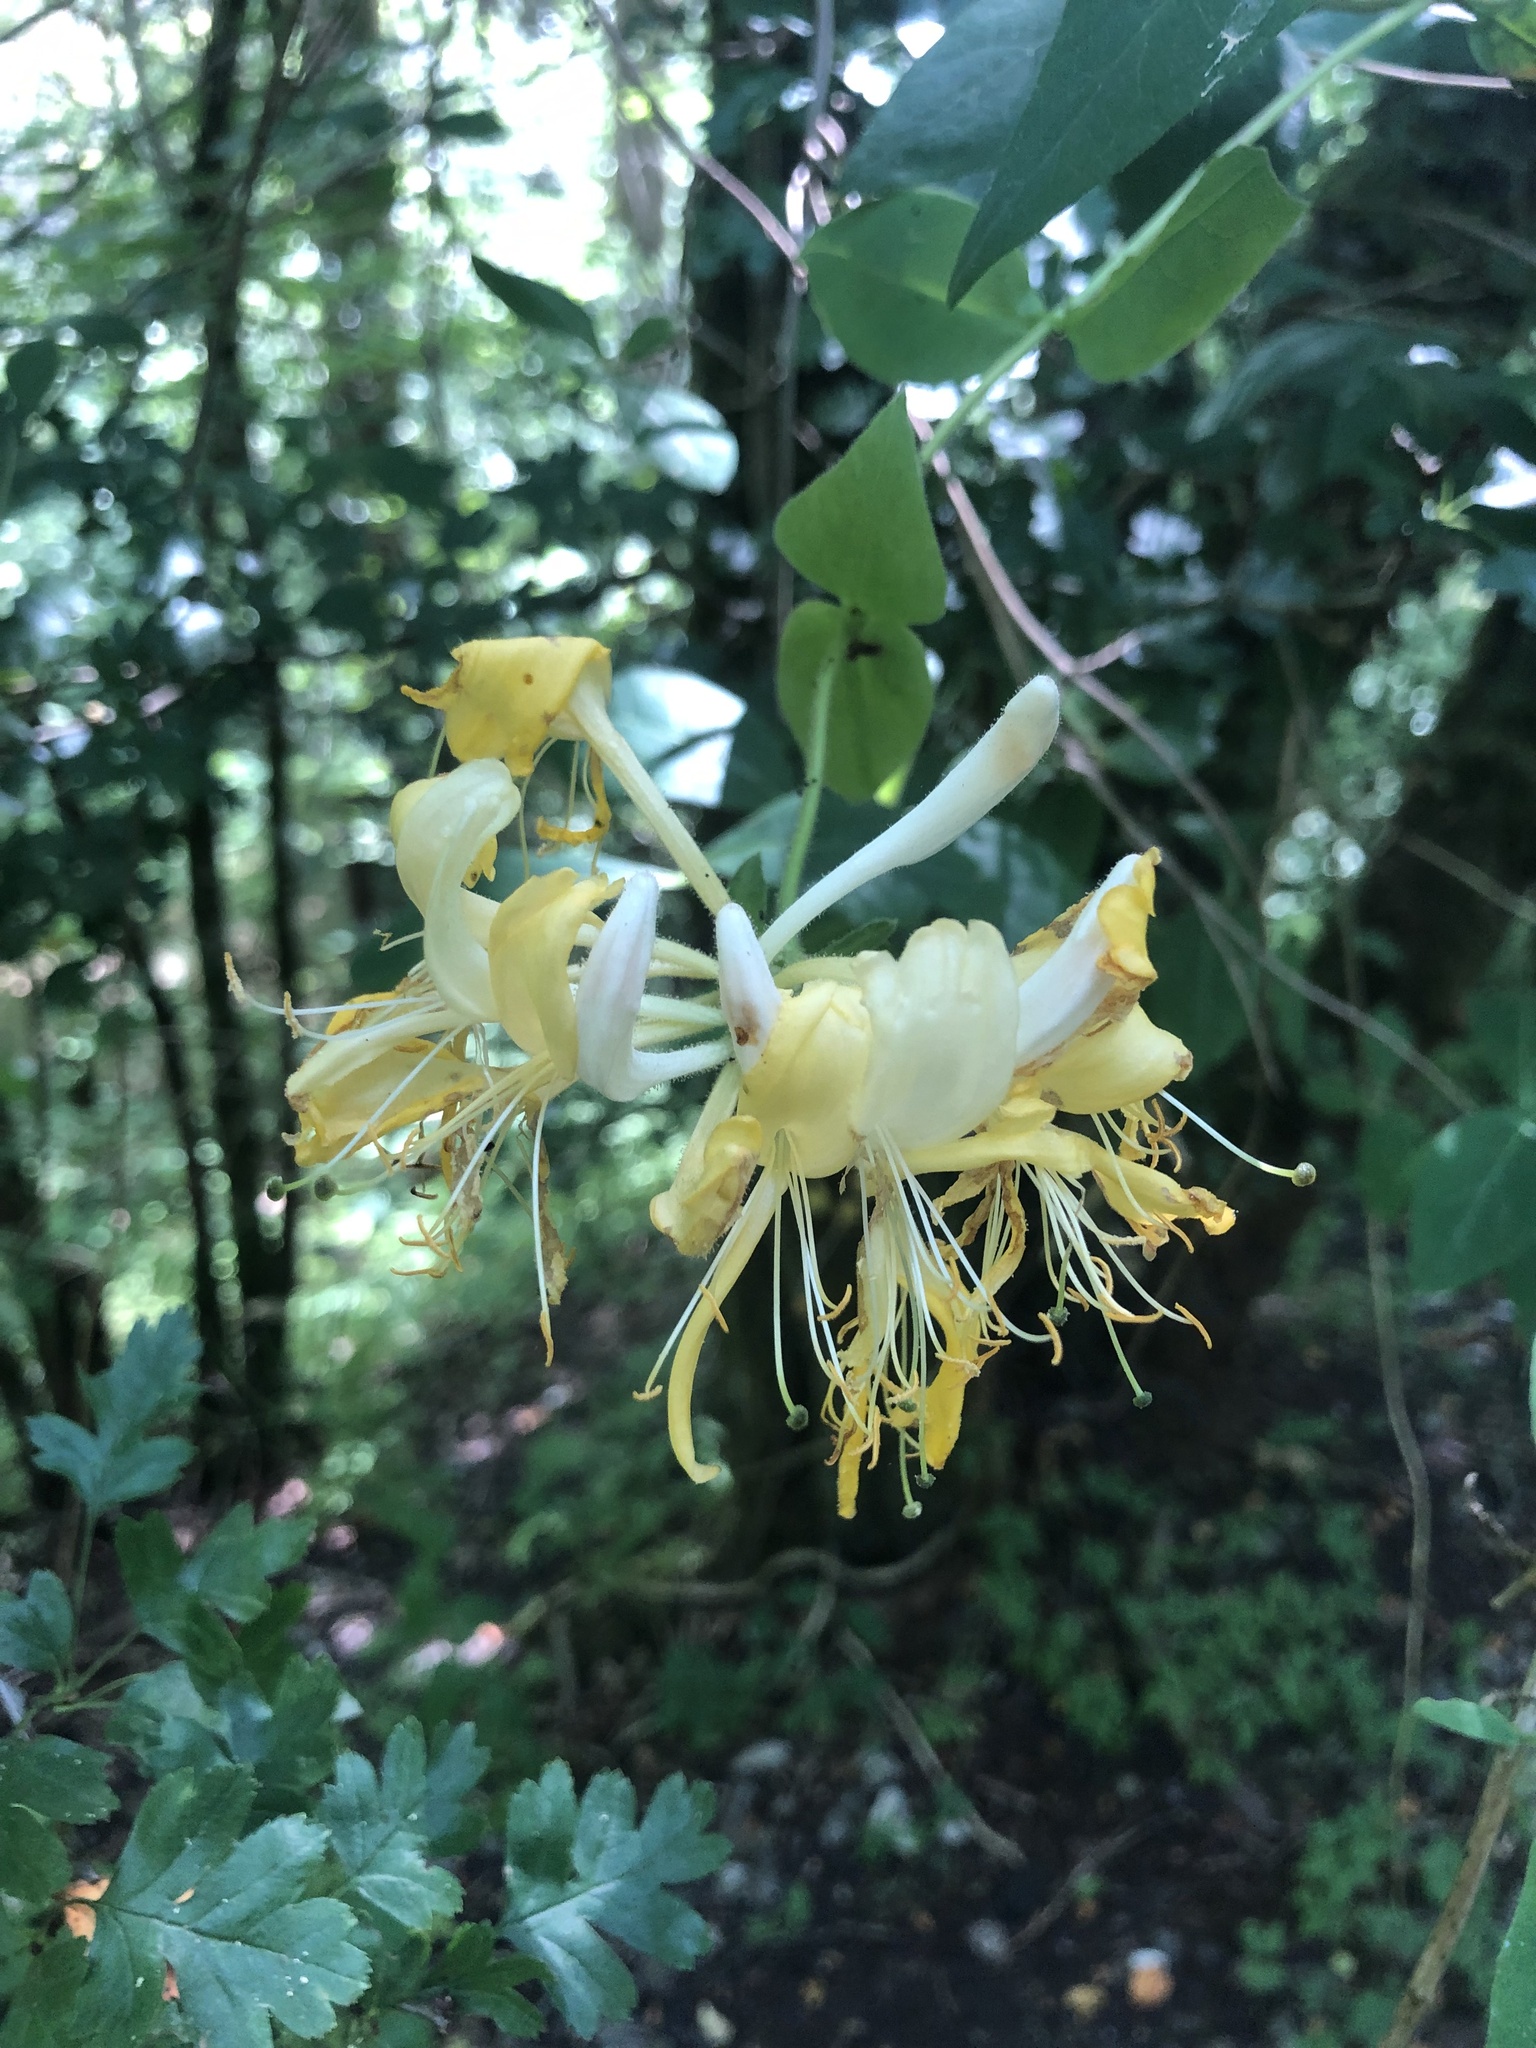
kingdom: Plantae
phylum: Tracheophyta
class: Magnoliopsida
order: Dipsacales
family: Caprifoliaceae
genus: Lonicera
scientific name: Lonicera periclymenum
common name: European honeysuckle
